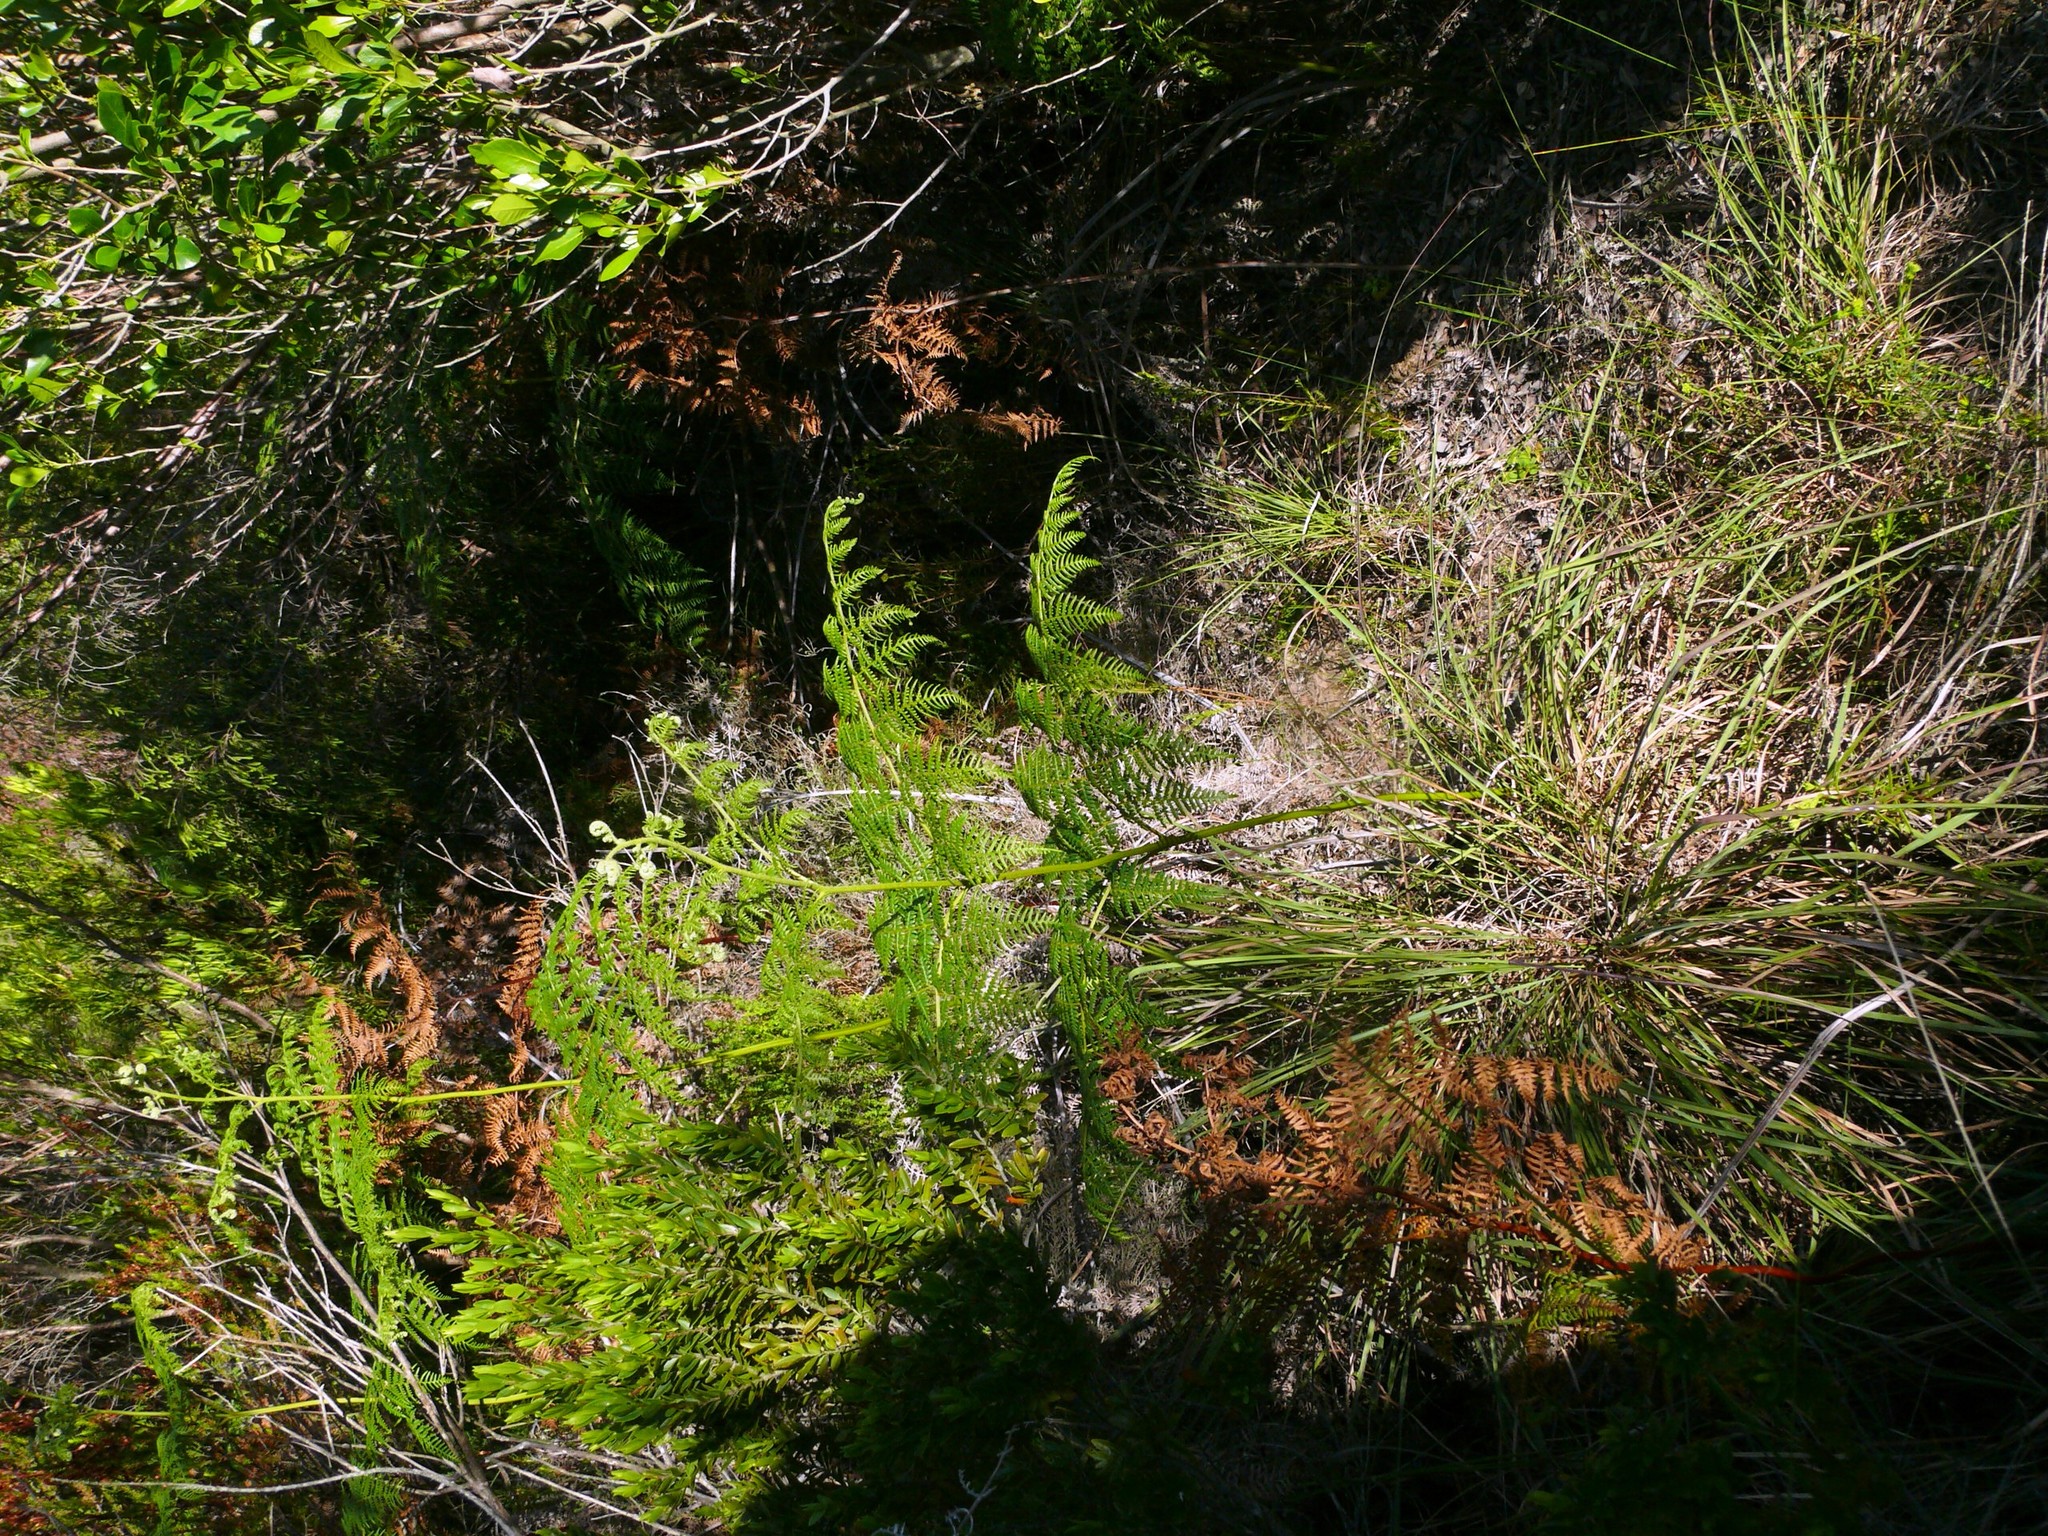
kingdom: Plantae
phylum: Tracheophyta
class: Polypodiopsida
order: Polypodiales
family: Dennstaedtiaceae
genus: Pteridium
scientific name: Pteridium aquilinum
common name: Bracken
